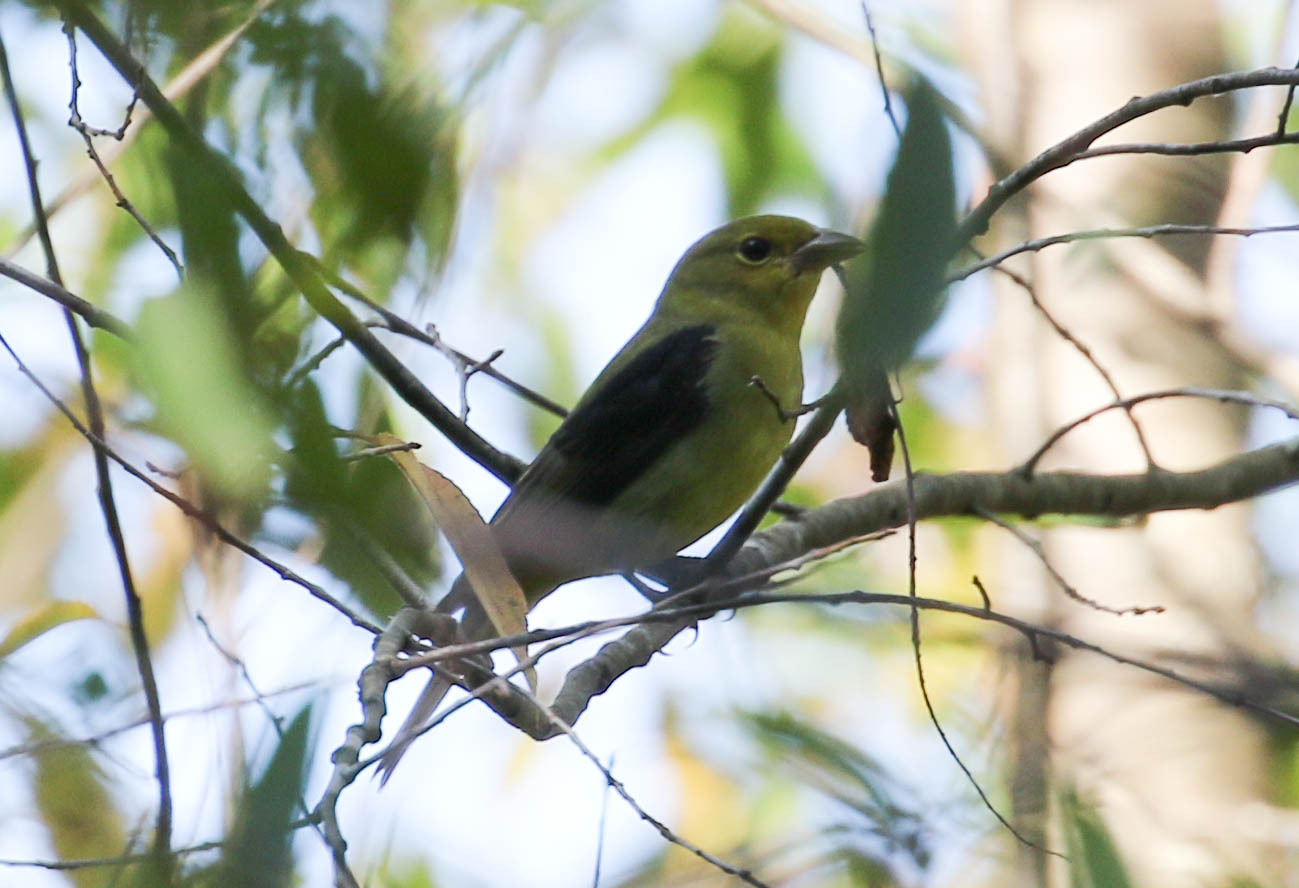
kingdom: Animalia
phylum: Chordata
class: Aves
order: Passeriformes
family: Cardinalidae
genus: Piranga
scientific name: Piranga olivacea
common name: Scarlet tanager
